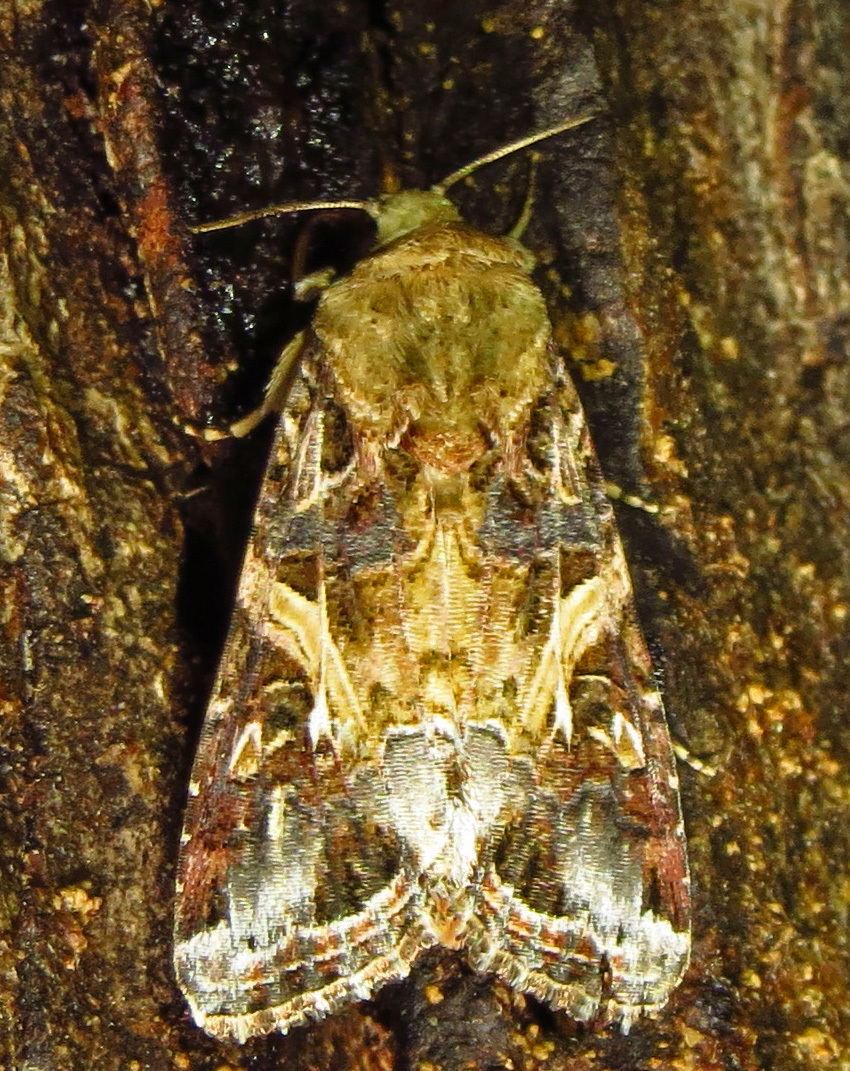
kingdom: Animalia
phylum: Arthropoda
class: Insecta
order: Lepidoptera
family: Noctuidae
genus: Spodoptera
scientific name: Spodoptera ornithogalli
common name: Yellow-striped armyworm
